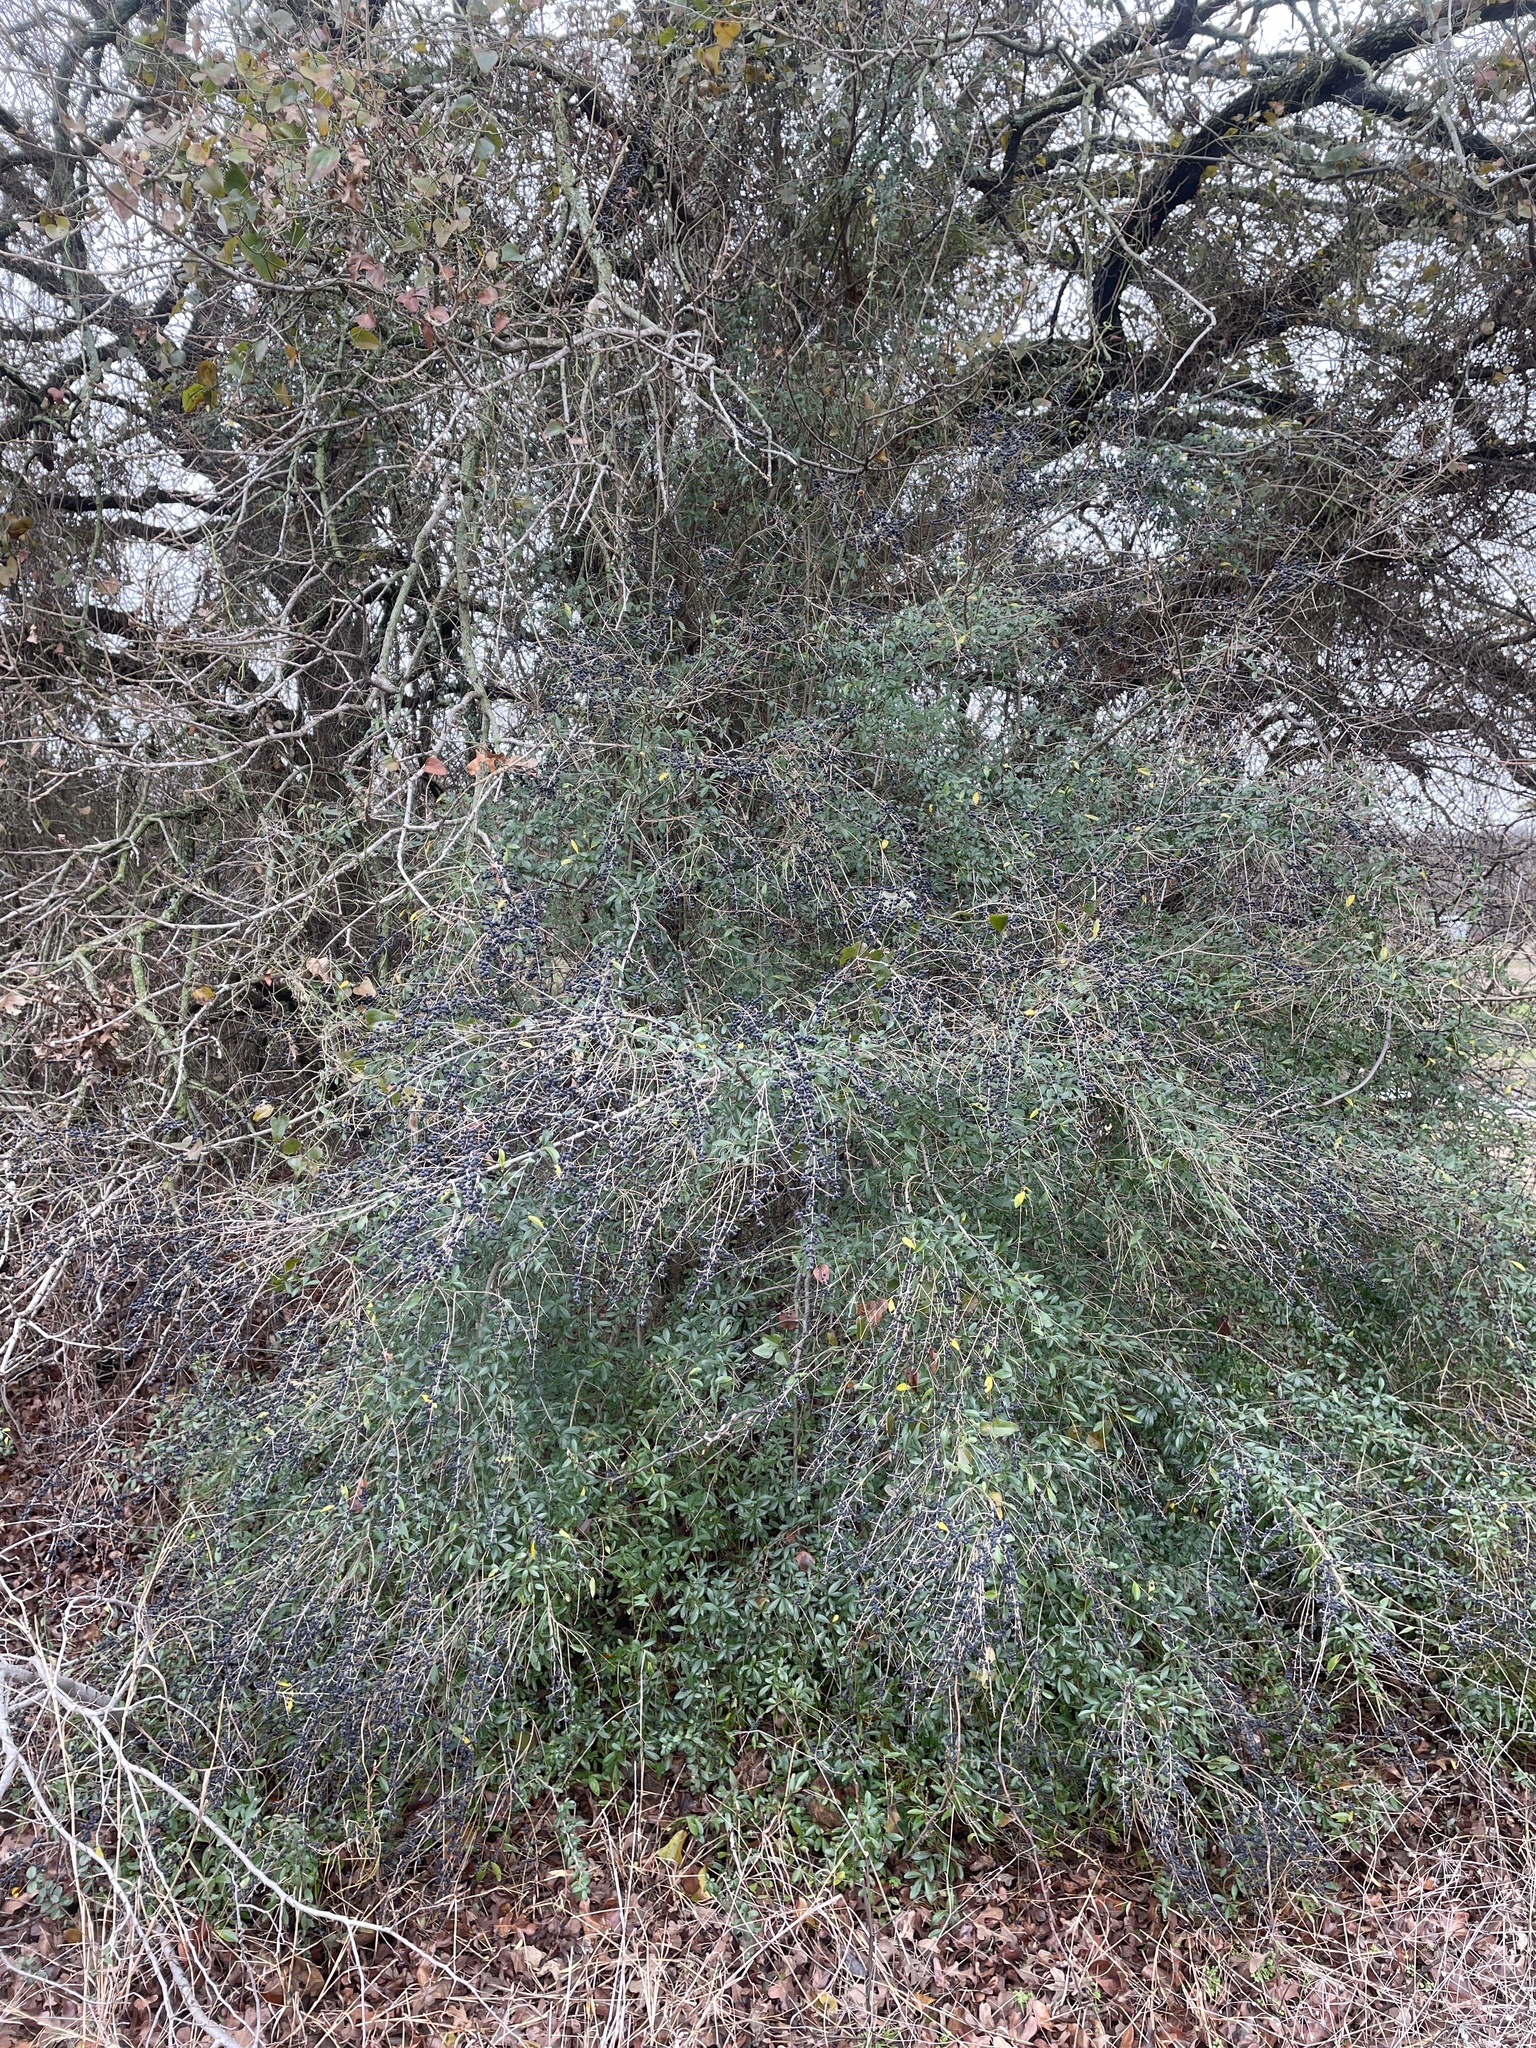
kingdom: Plantae
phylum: Tracheophyta
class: Magnoliopsida
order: Lamiales
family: Oleaceae
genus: Ligustrum
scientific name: Ligustrum quihoui
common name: Waxyleaf privet
